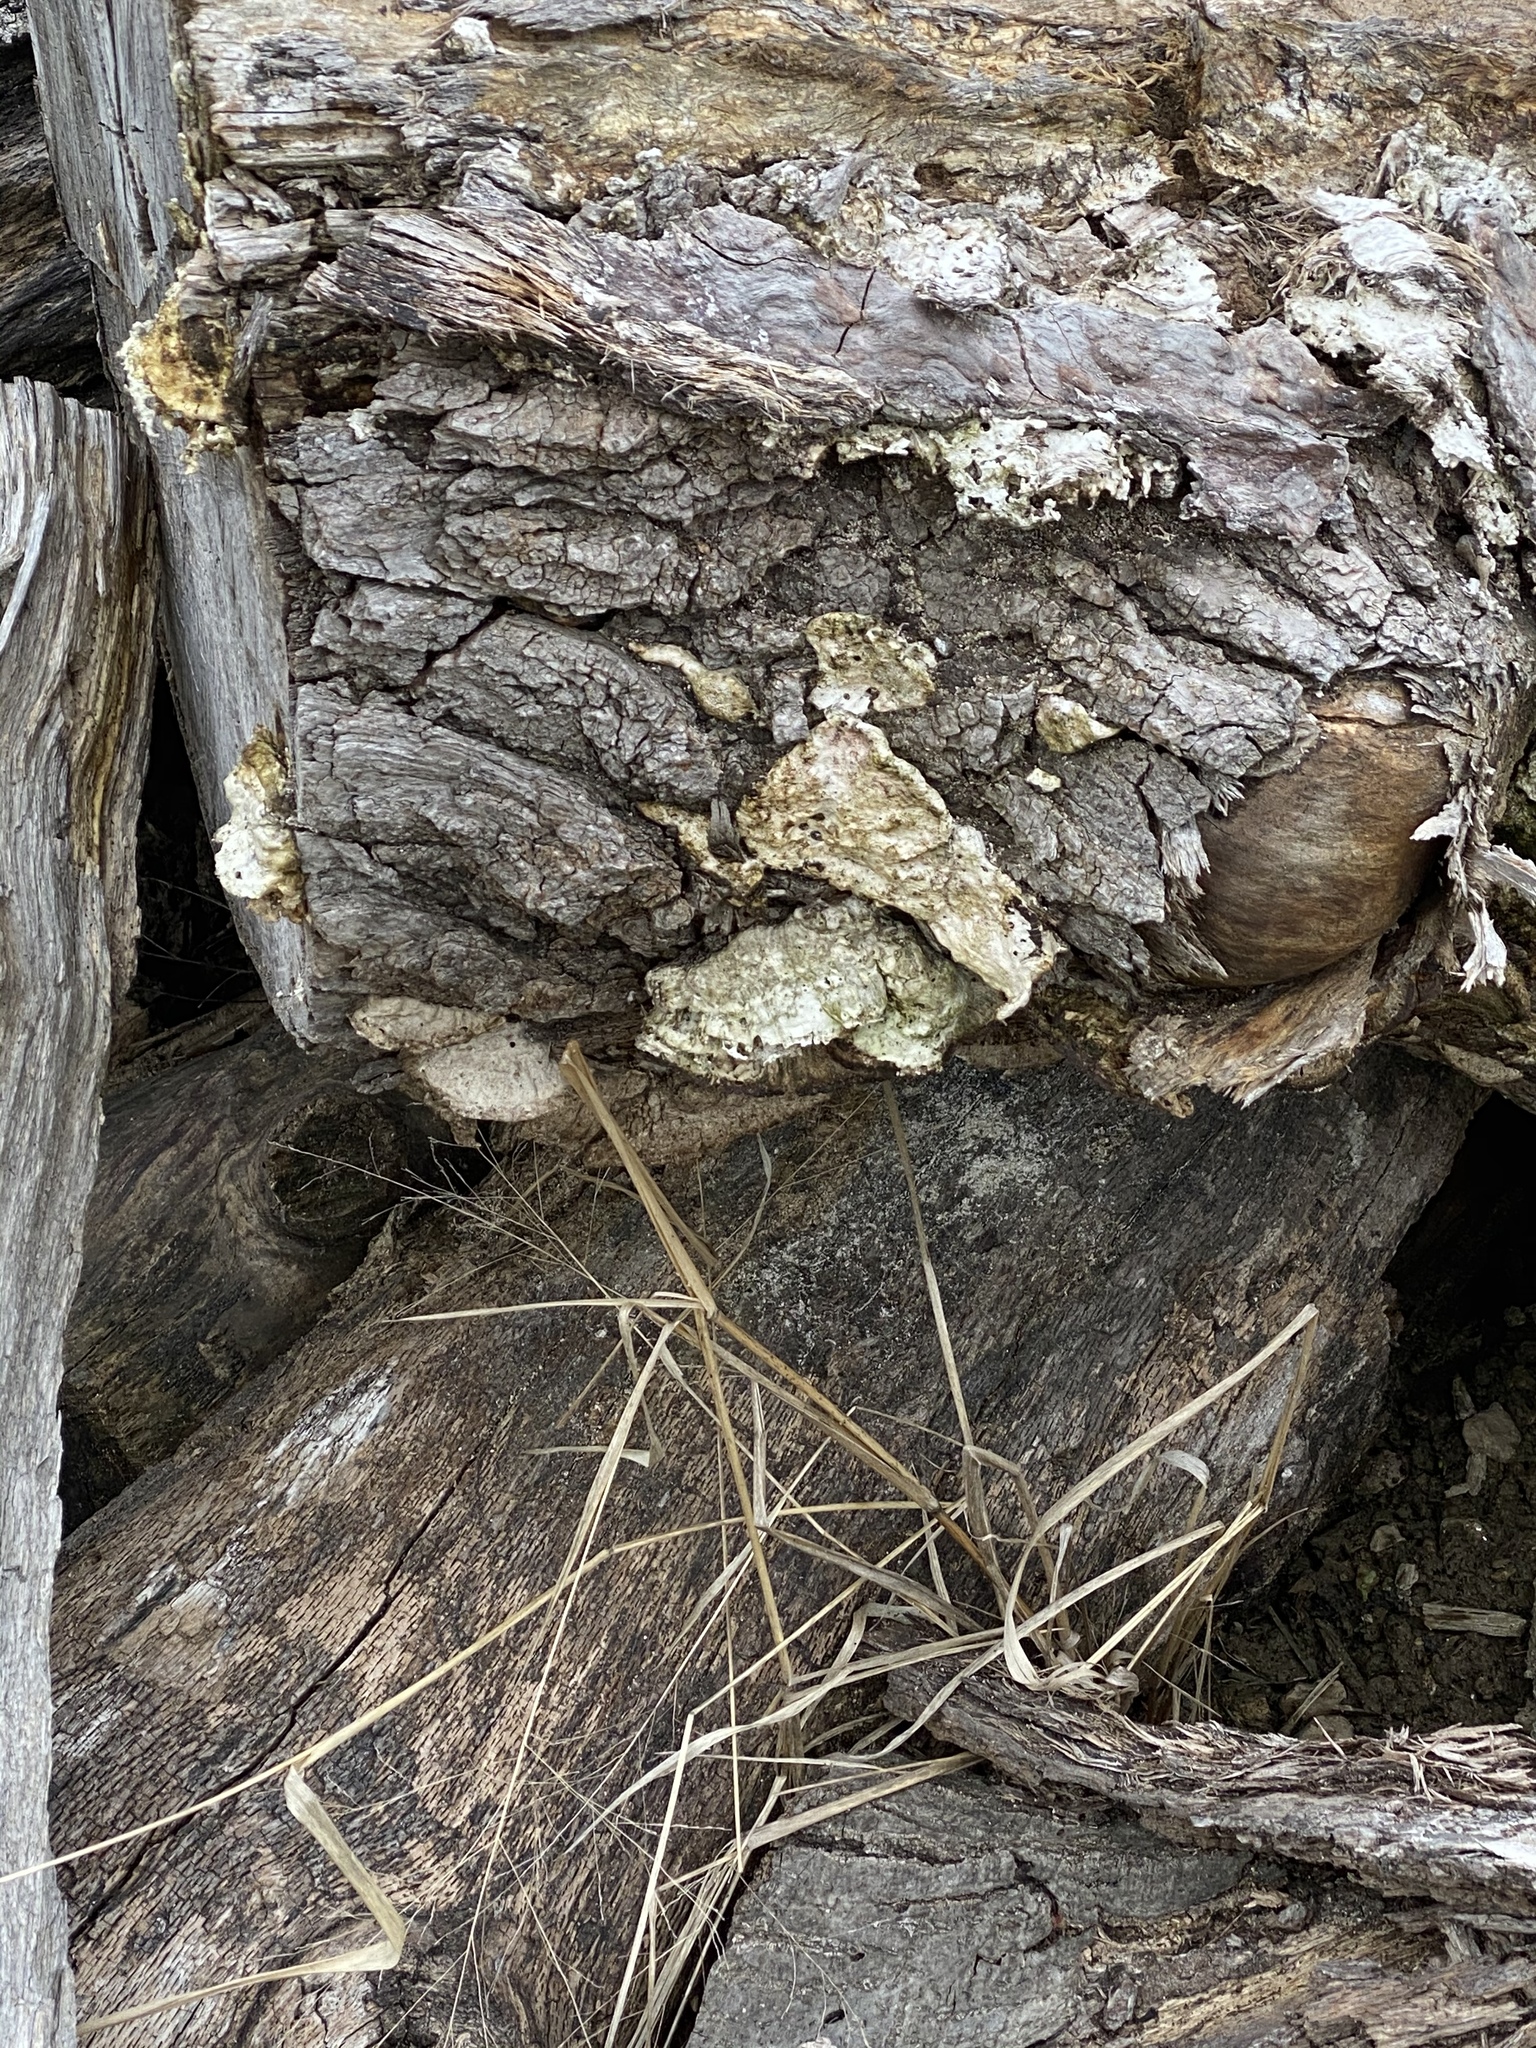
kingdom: Fungi
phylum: Basidiomycota
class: Agaricomycetes
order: Polyporales
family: Cerrenaceae
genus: Cerrena
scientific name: Cerrena unicolor
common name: Mossy maze polypore
